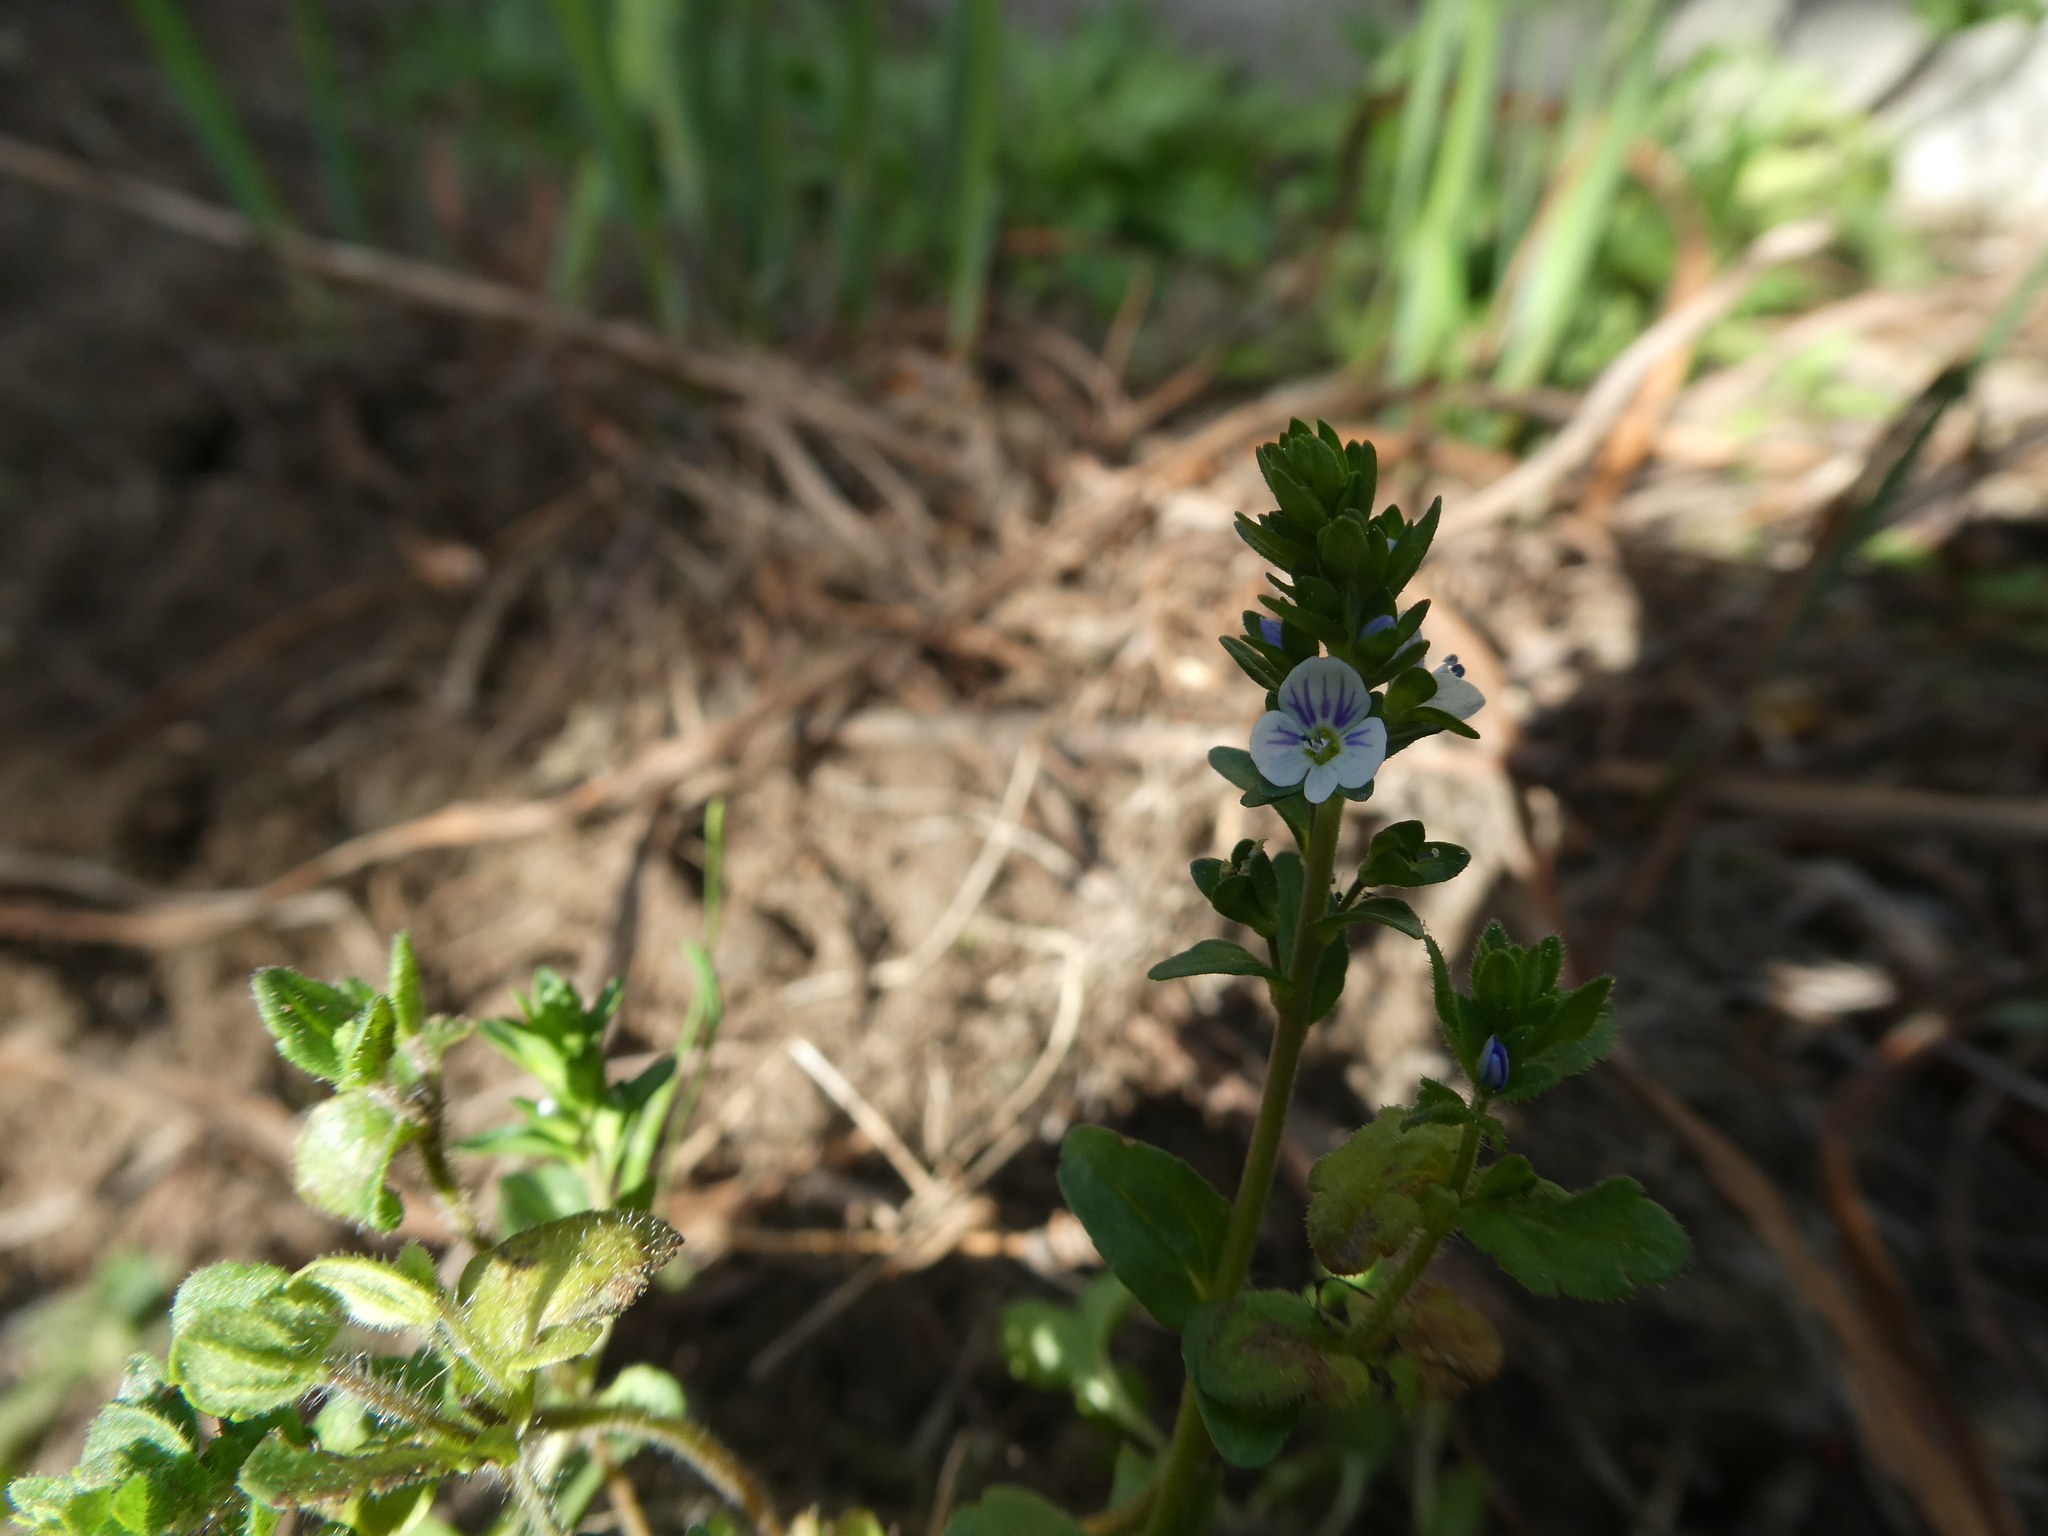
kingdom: Plantae
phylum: Tracheophyta
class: Magnoliopsida
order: Lamiales
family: Plantaginaceae
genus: Veronica
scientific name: Veronica serpyllifolia
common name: Thyme-leaved speedwell
